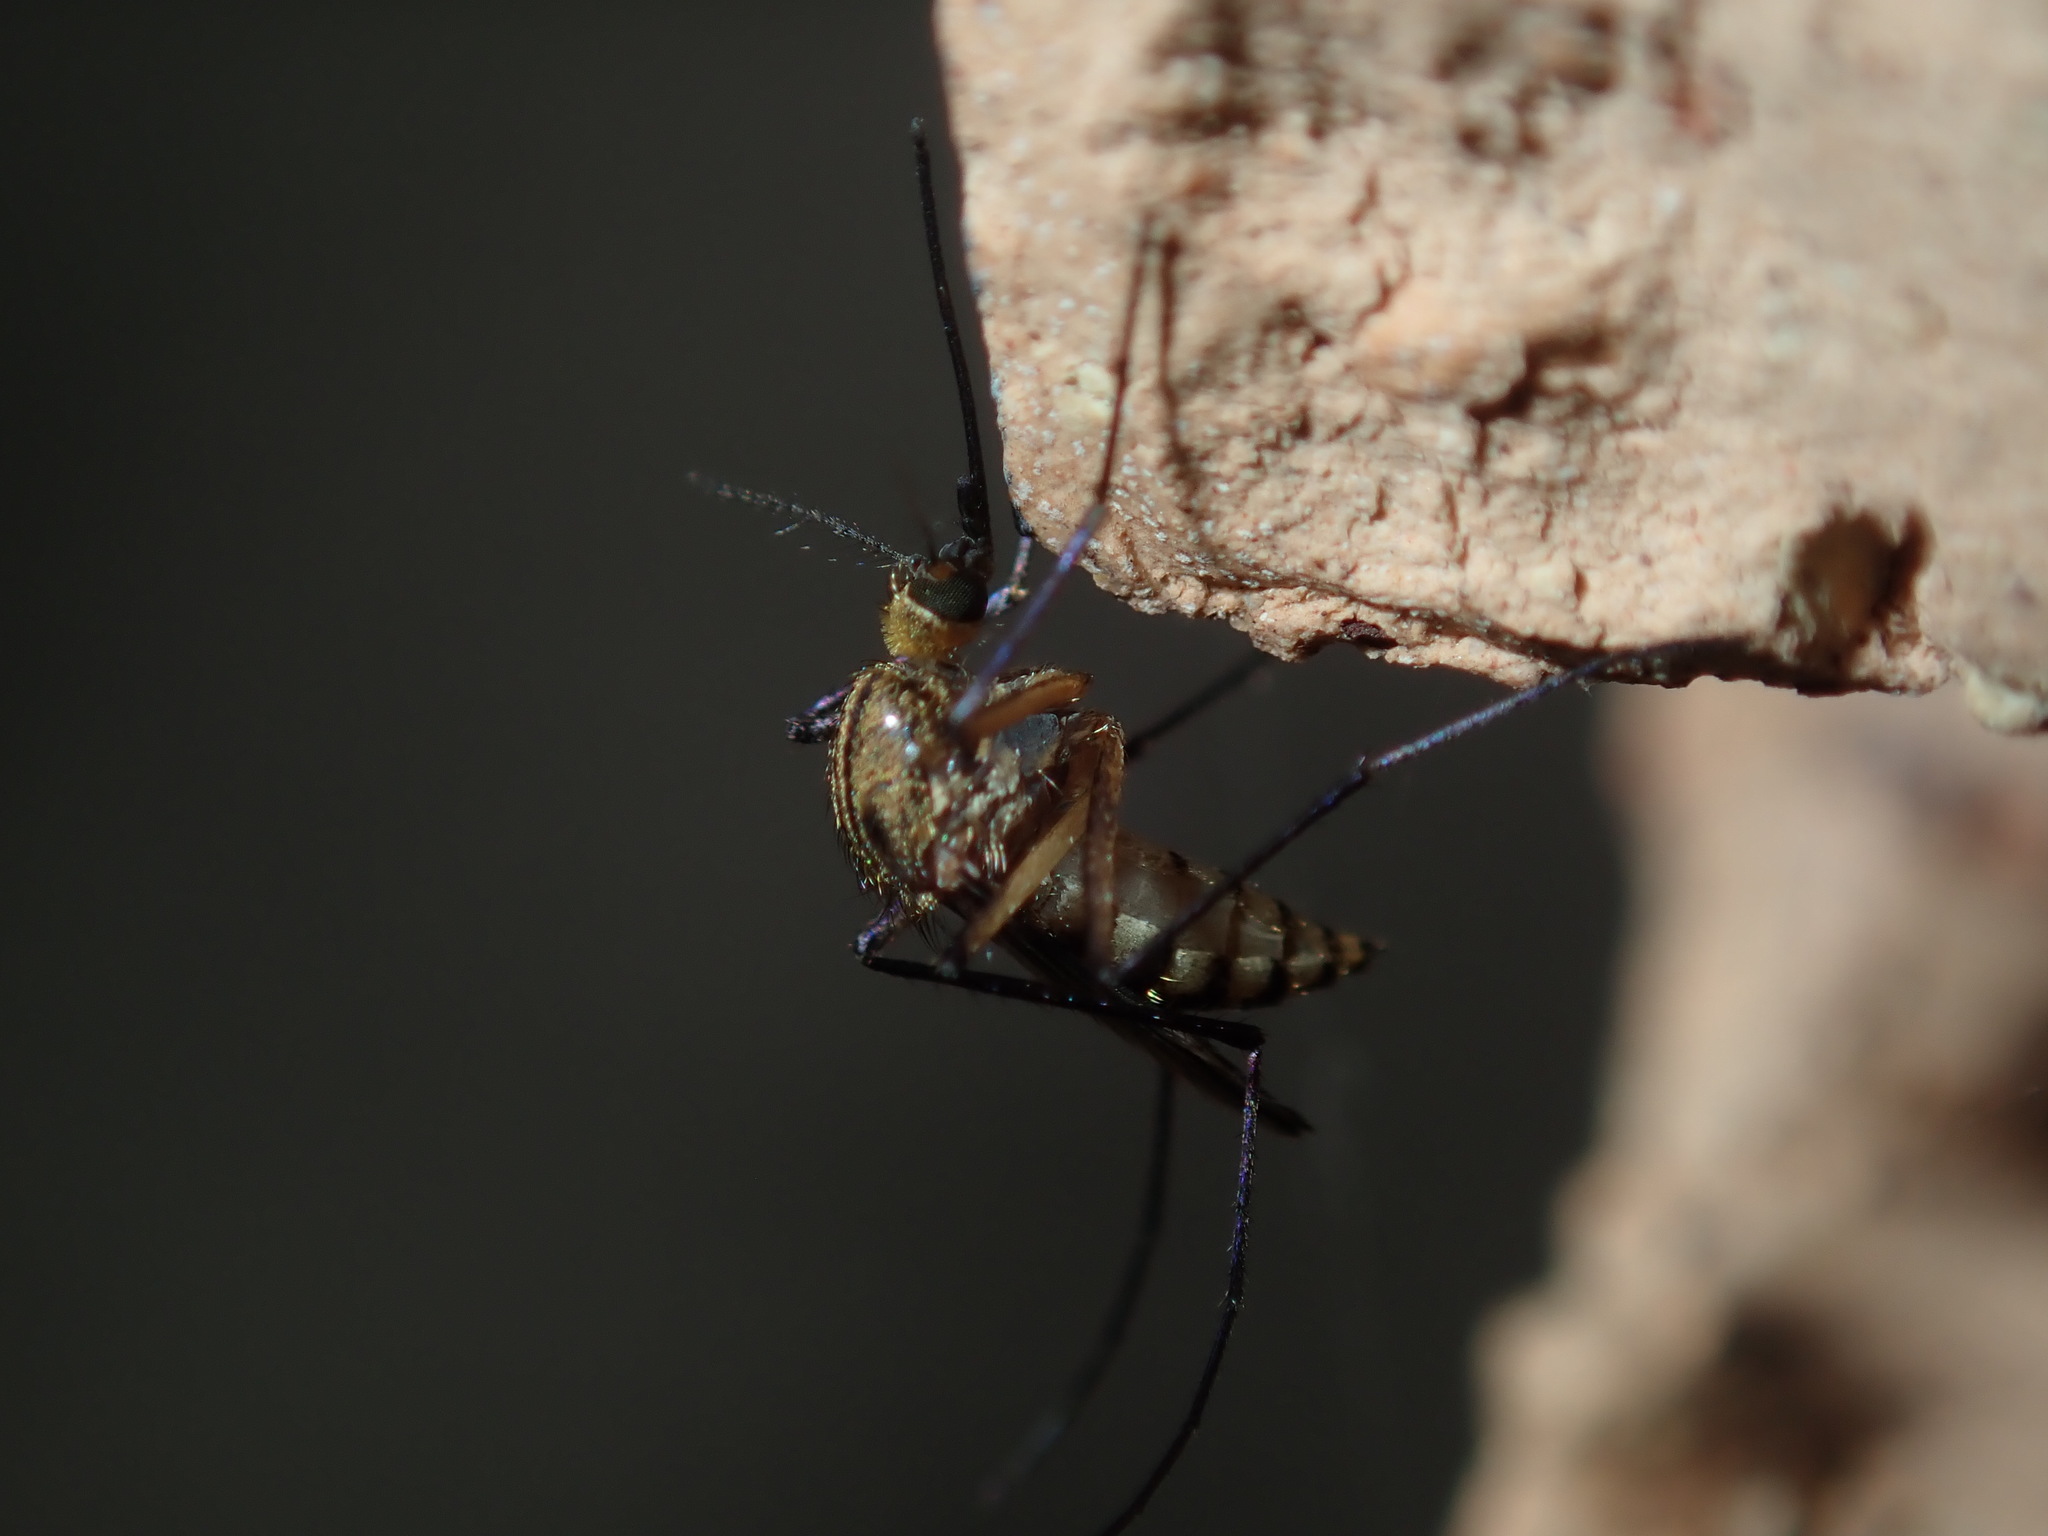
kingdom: Animalia
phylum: Arthropoda
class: Insecta
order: Diptera
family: Culicidae
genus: Aedes
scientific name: Aedes imperfectus
